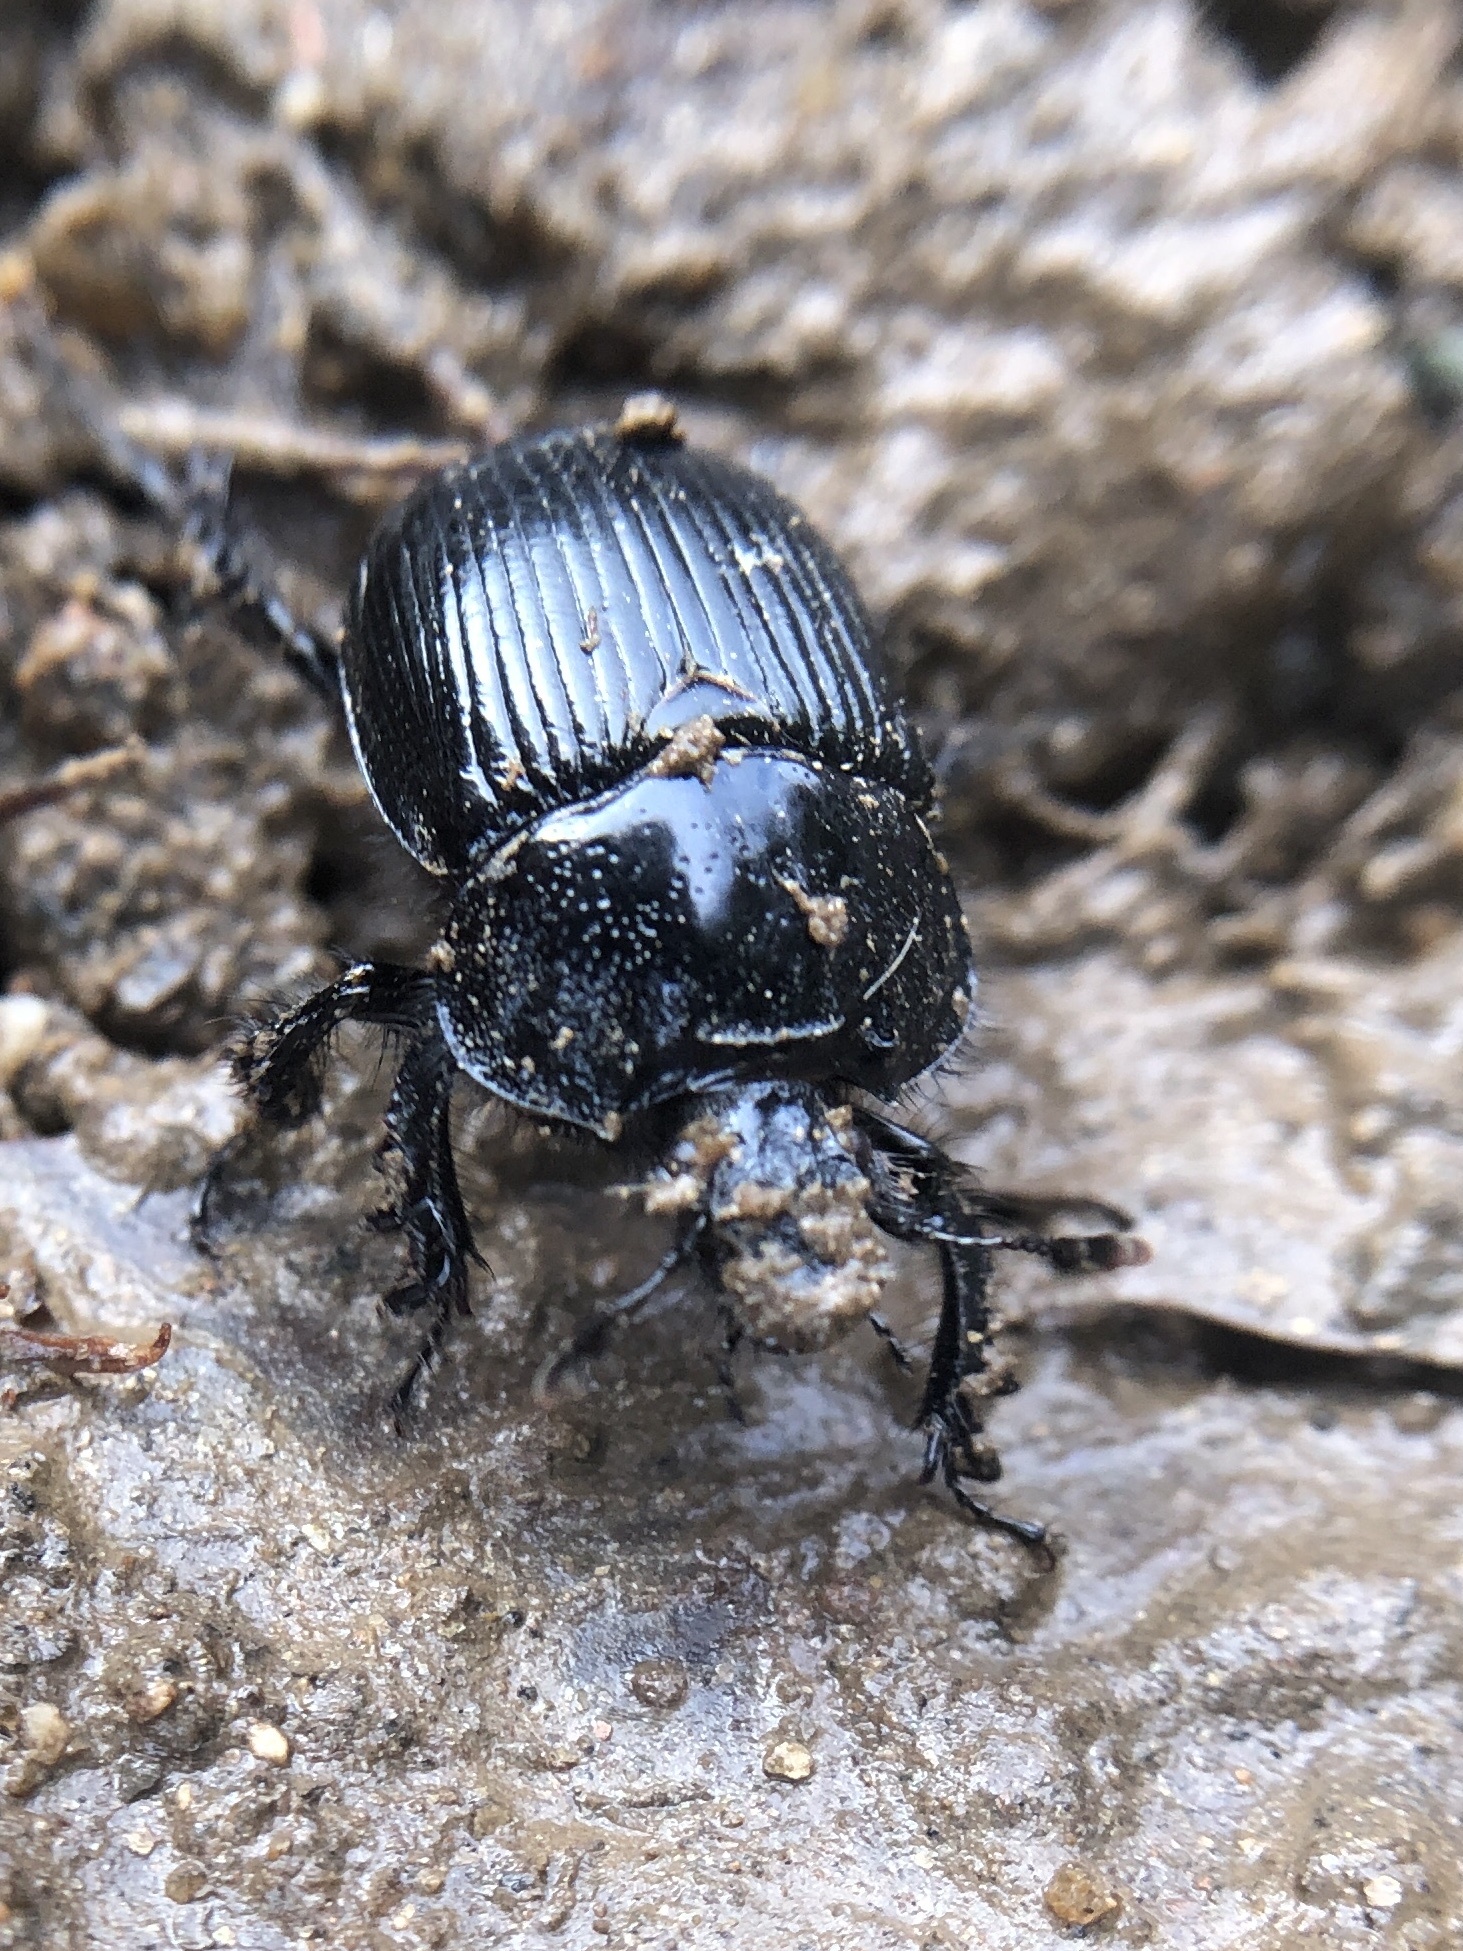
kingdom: Animalia
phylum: Arthropoda
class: Insecta
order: Coleoptera
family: Geotrupidae
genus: Ceratophyus
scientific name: Ceratophyus martinezi
